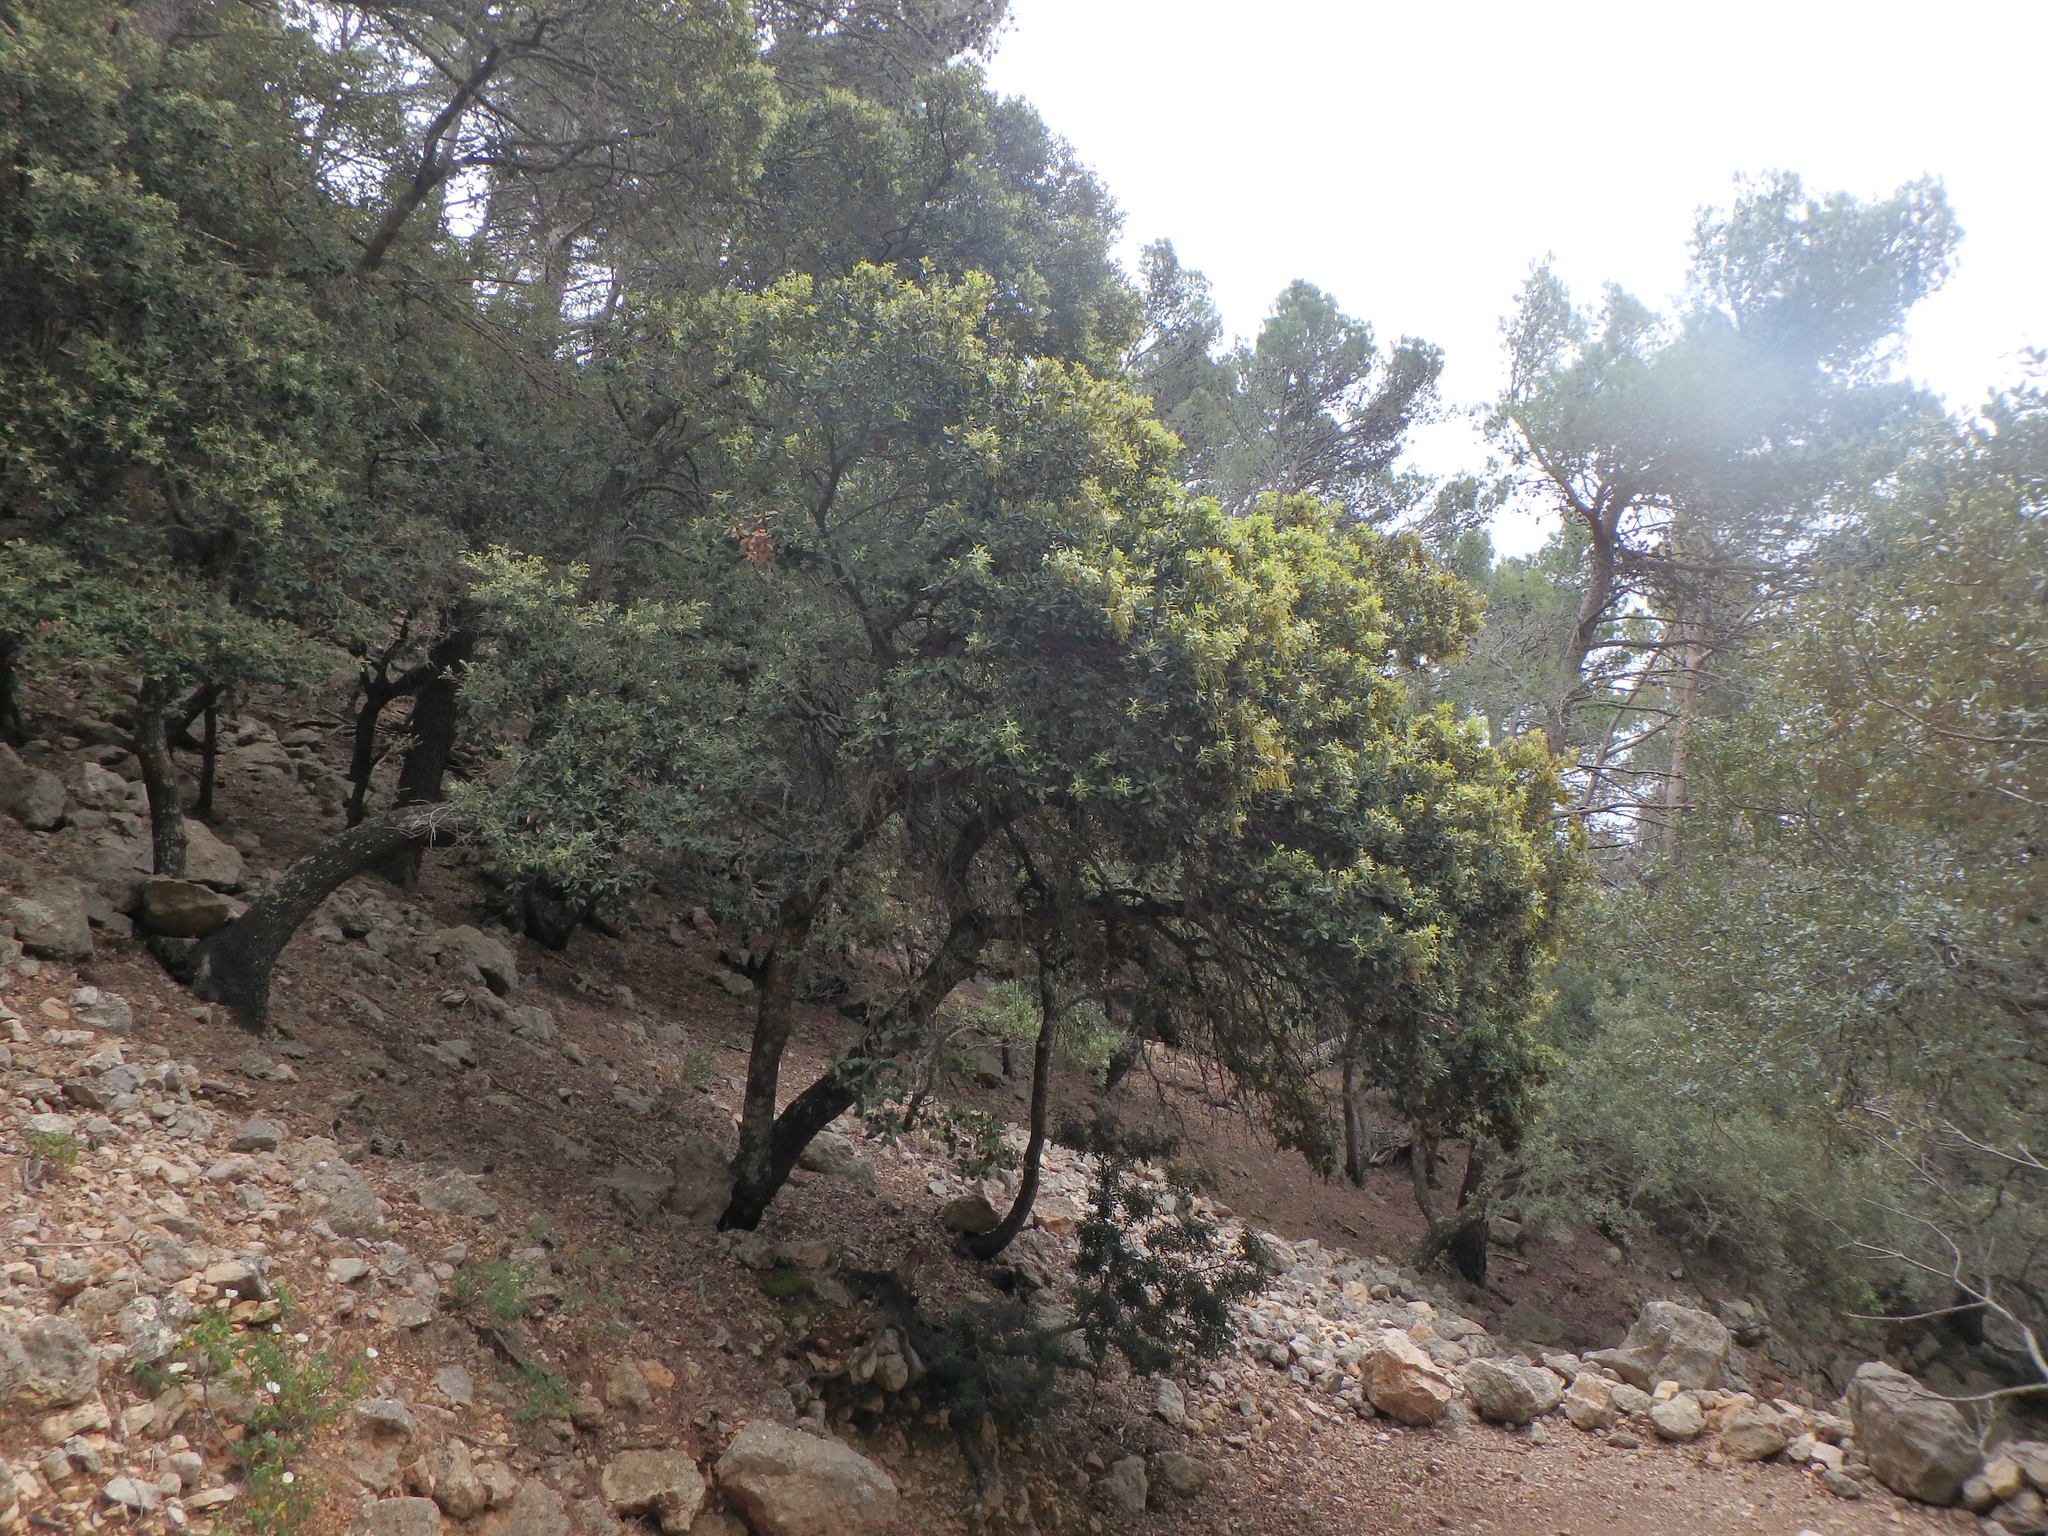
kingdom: Plantae
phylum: Tracheophyta
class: Magnoliopsida
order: Fagales
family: Fagaceae
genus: Quercus
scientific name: Quercus ilex
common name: Evergreen oak
